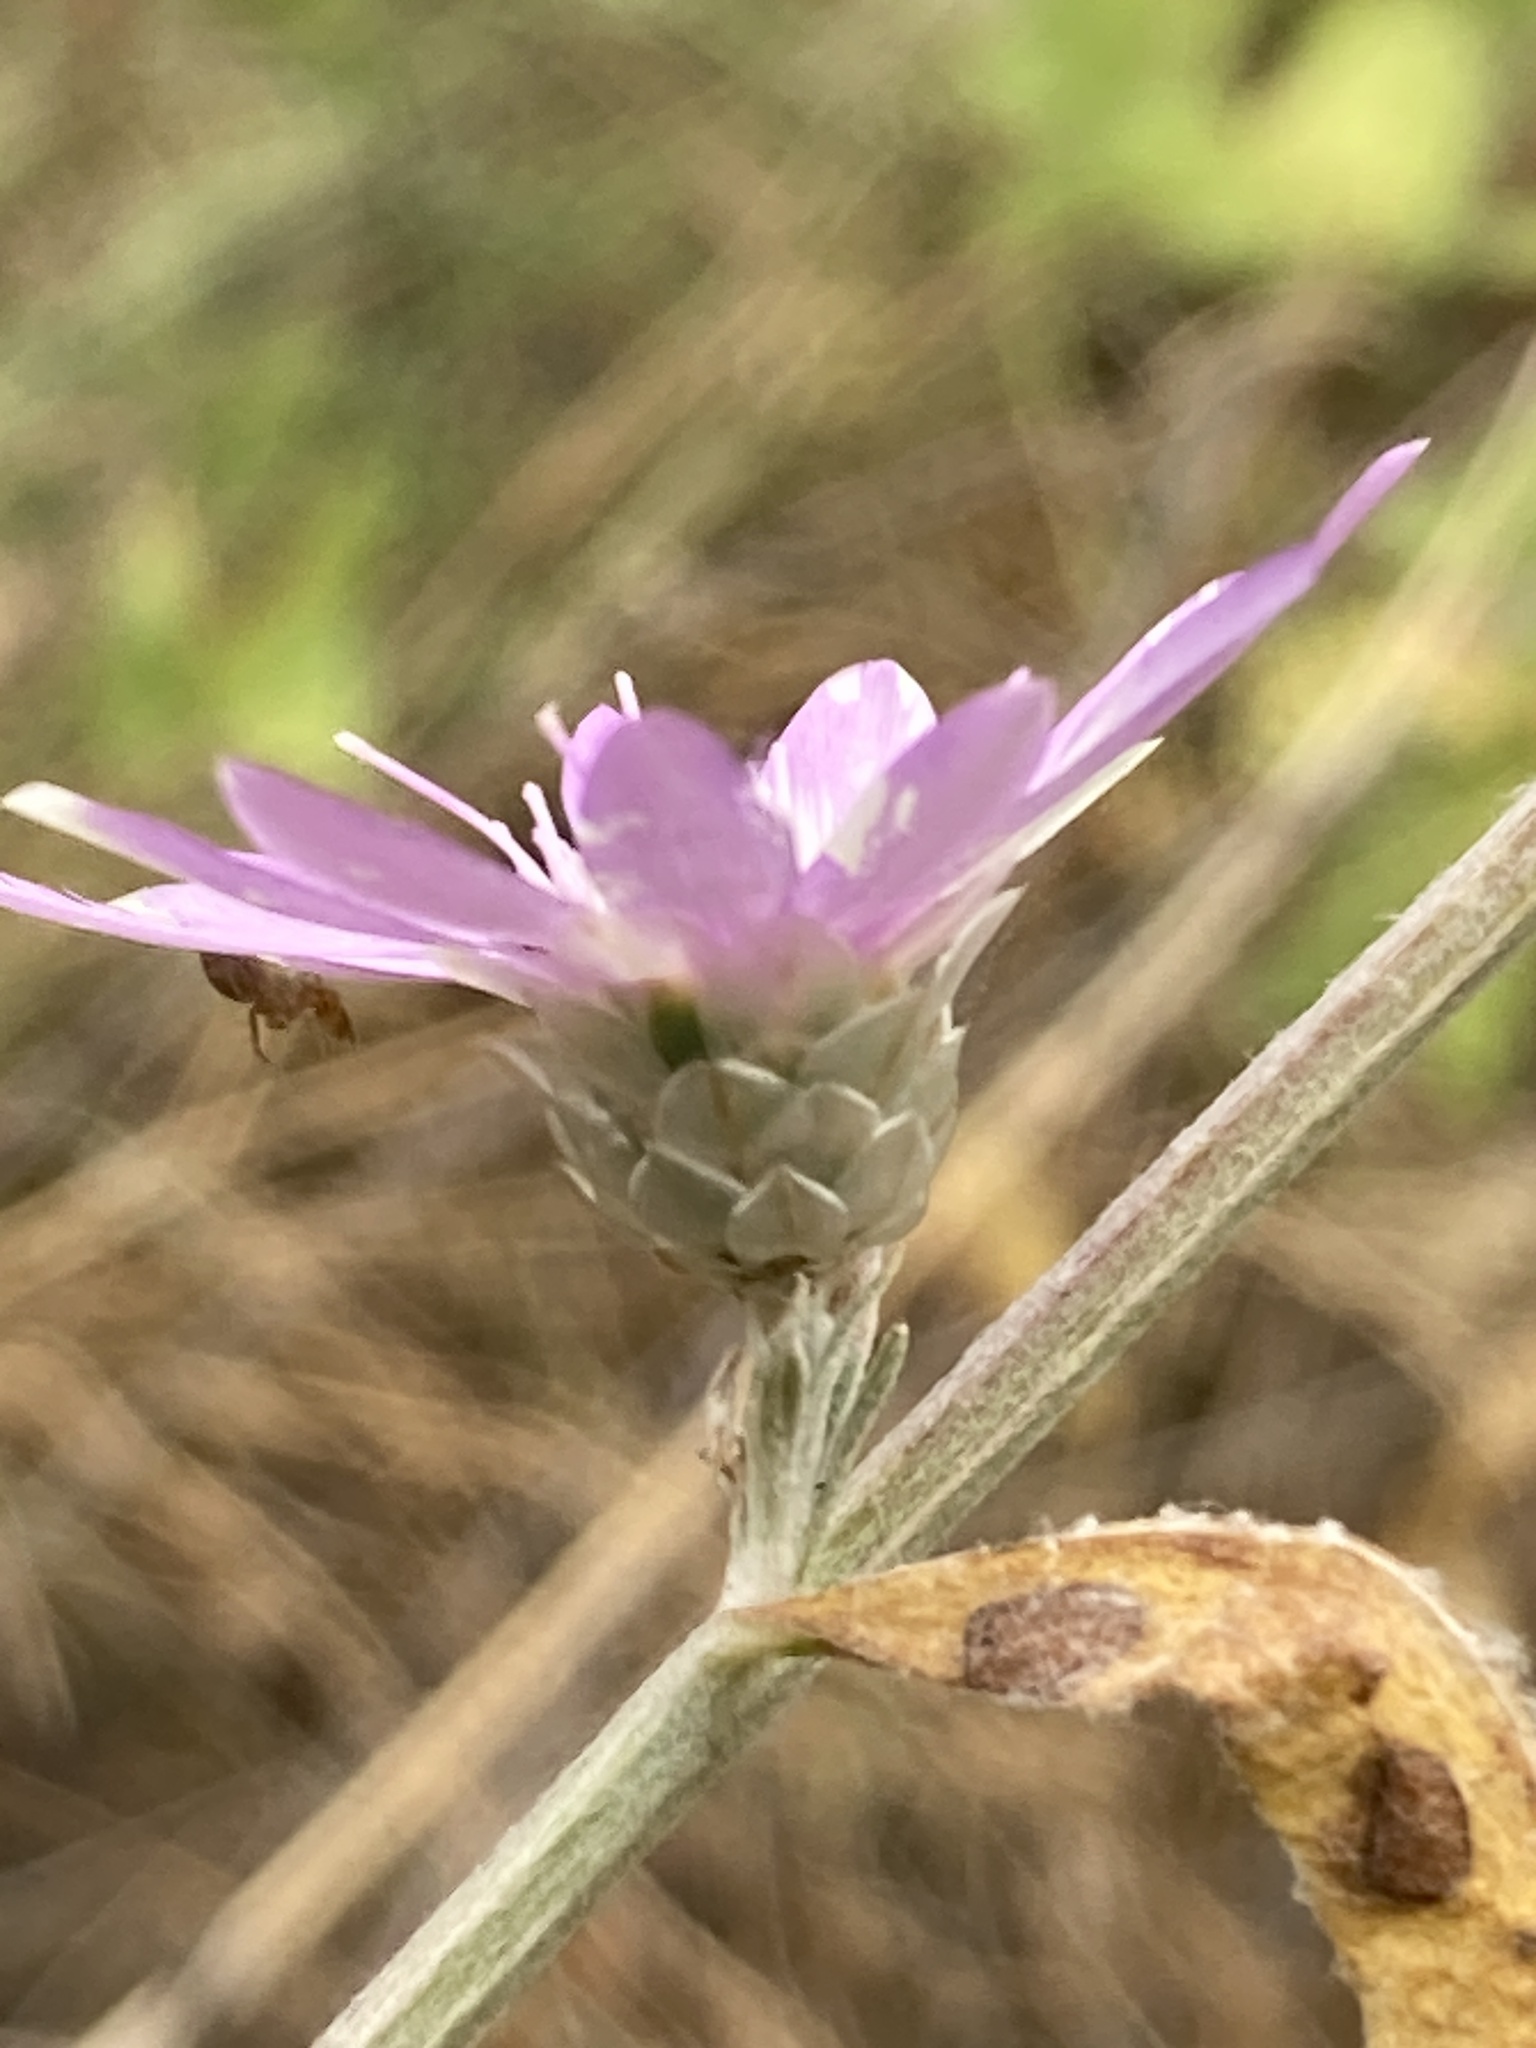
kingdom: Plantae
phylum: Tracheophyta
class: Magnoliopsida
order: Asterales
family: Asteraceae
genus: Xeranthemum
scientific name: Xeranthemum annuum
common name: Immortelle
